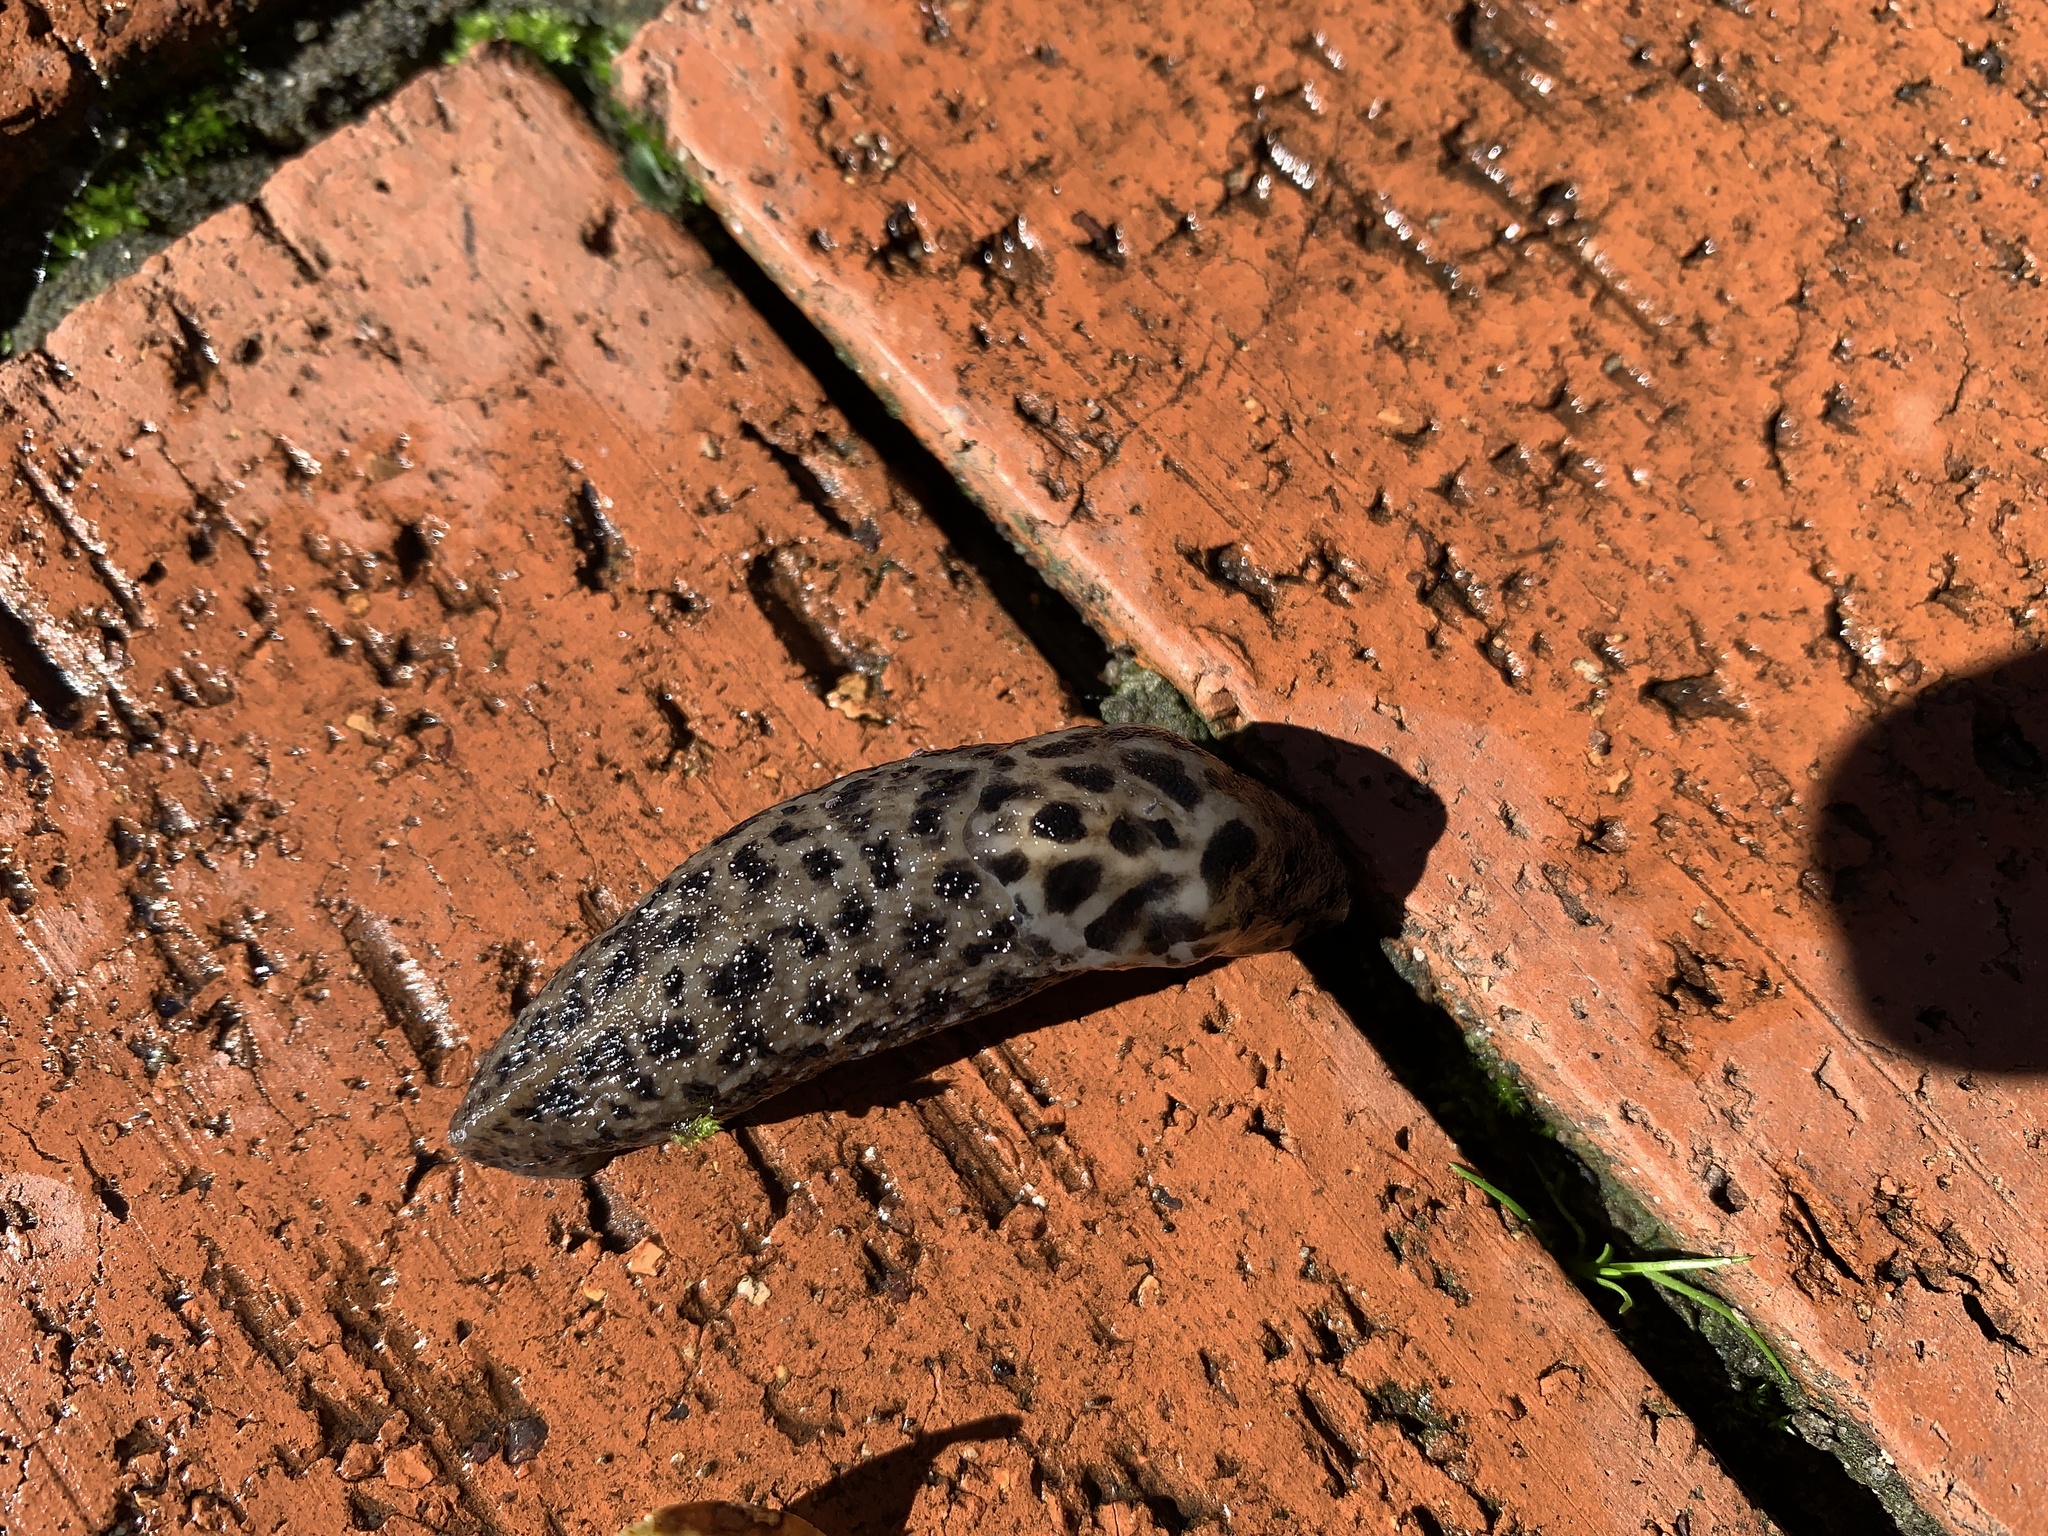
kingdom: Animalia
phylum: Mollusca
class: Gastropoda
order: Stylommatophora
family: Limacidae
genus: Limax
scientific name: Limax maximus
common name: Great grey slug
